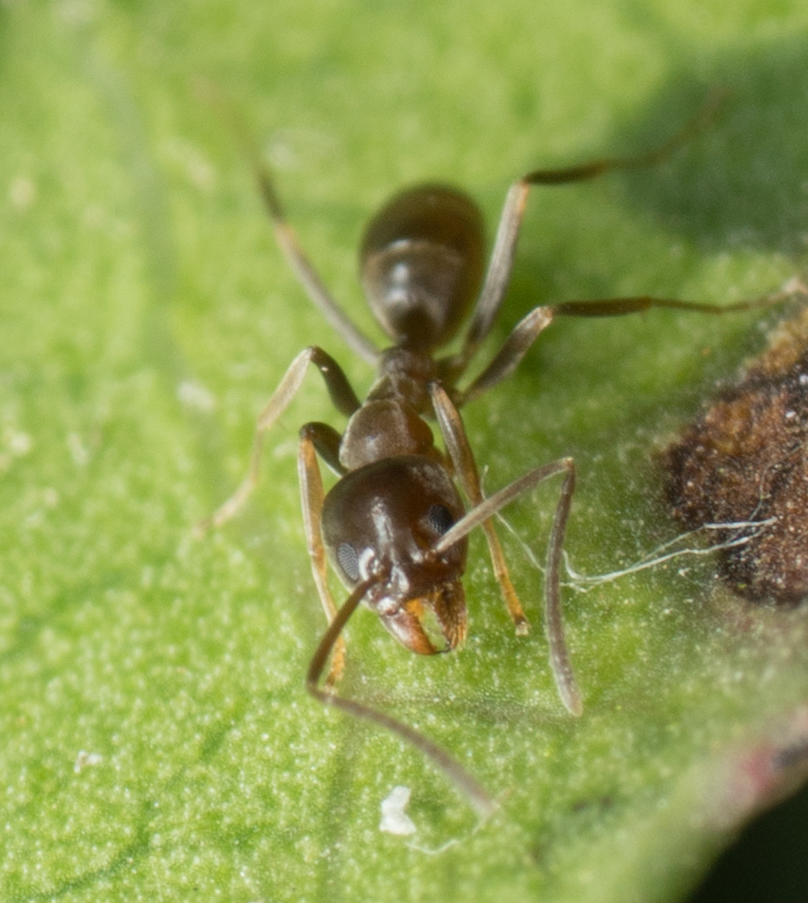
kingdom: Animalia
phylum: Arthropoda
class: Insecta
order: Hymenoptera
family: Formicidae
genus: Linepithema
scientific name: Linepithema humile
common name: Argentine ant
